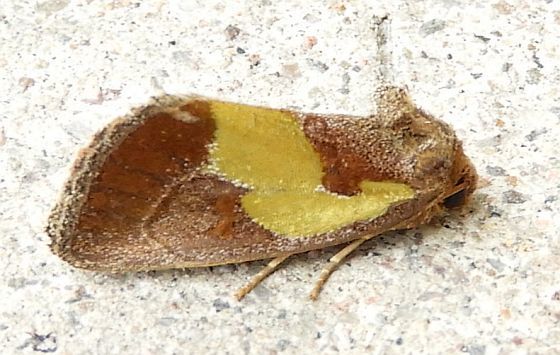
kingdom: Animalia
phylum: Arthropoda
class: Insecta
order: Lepidoptera
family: Noctuidae
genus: Chalcopasta
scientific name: Chalcopasta acema
